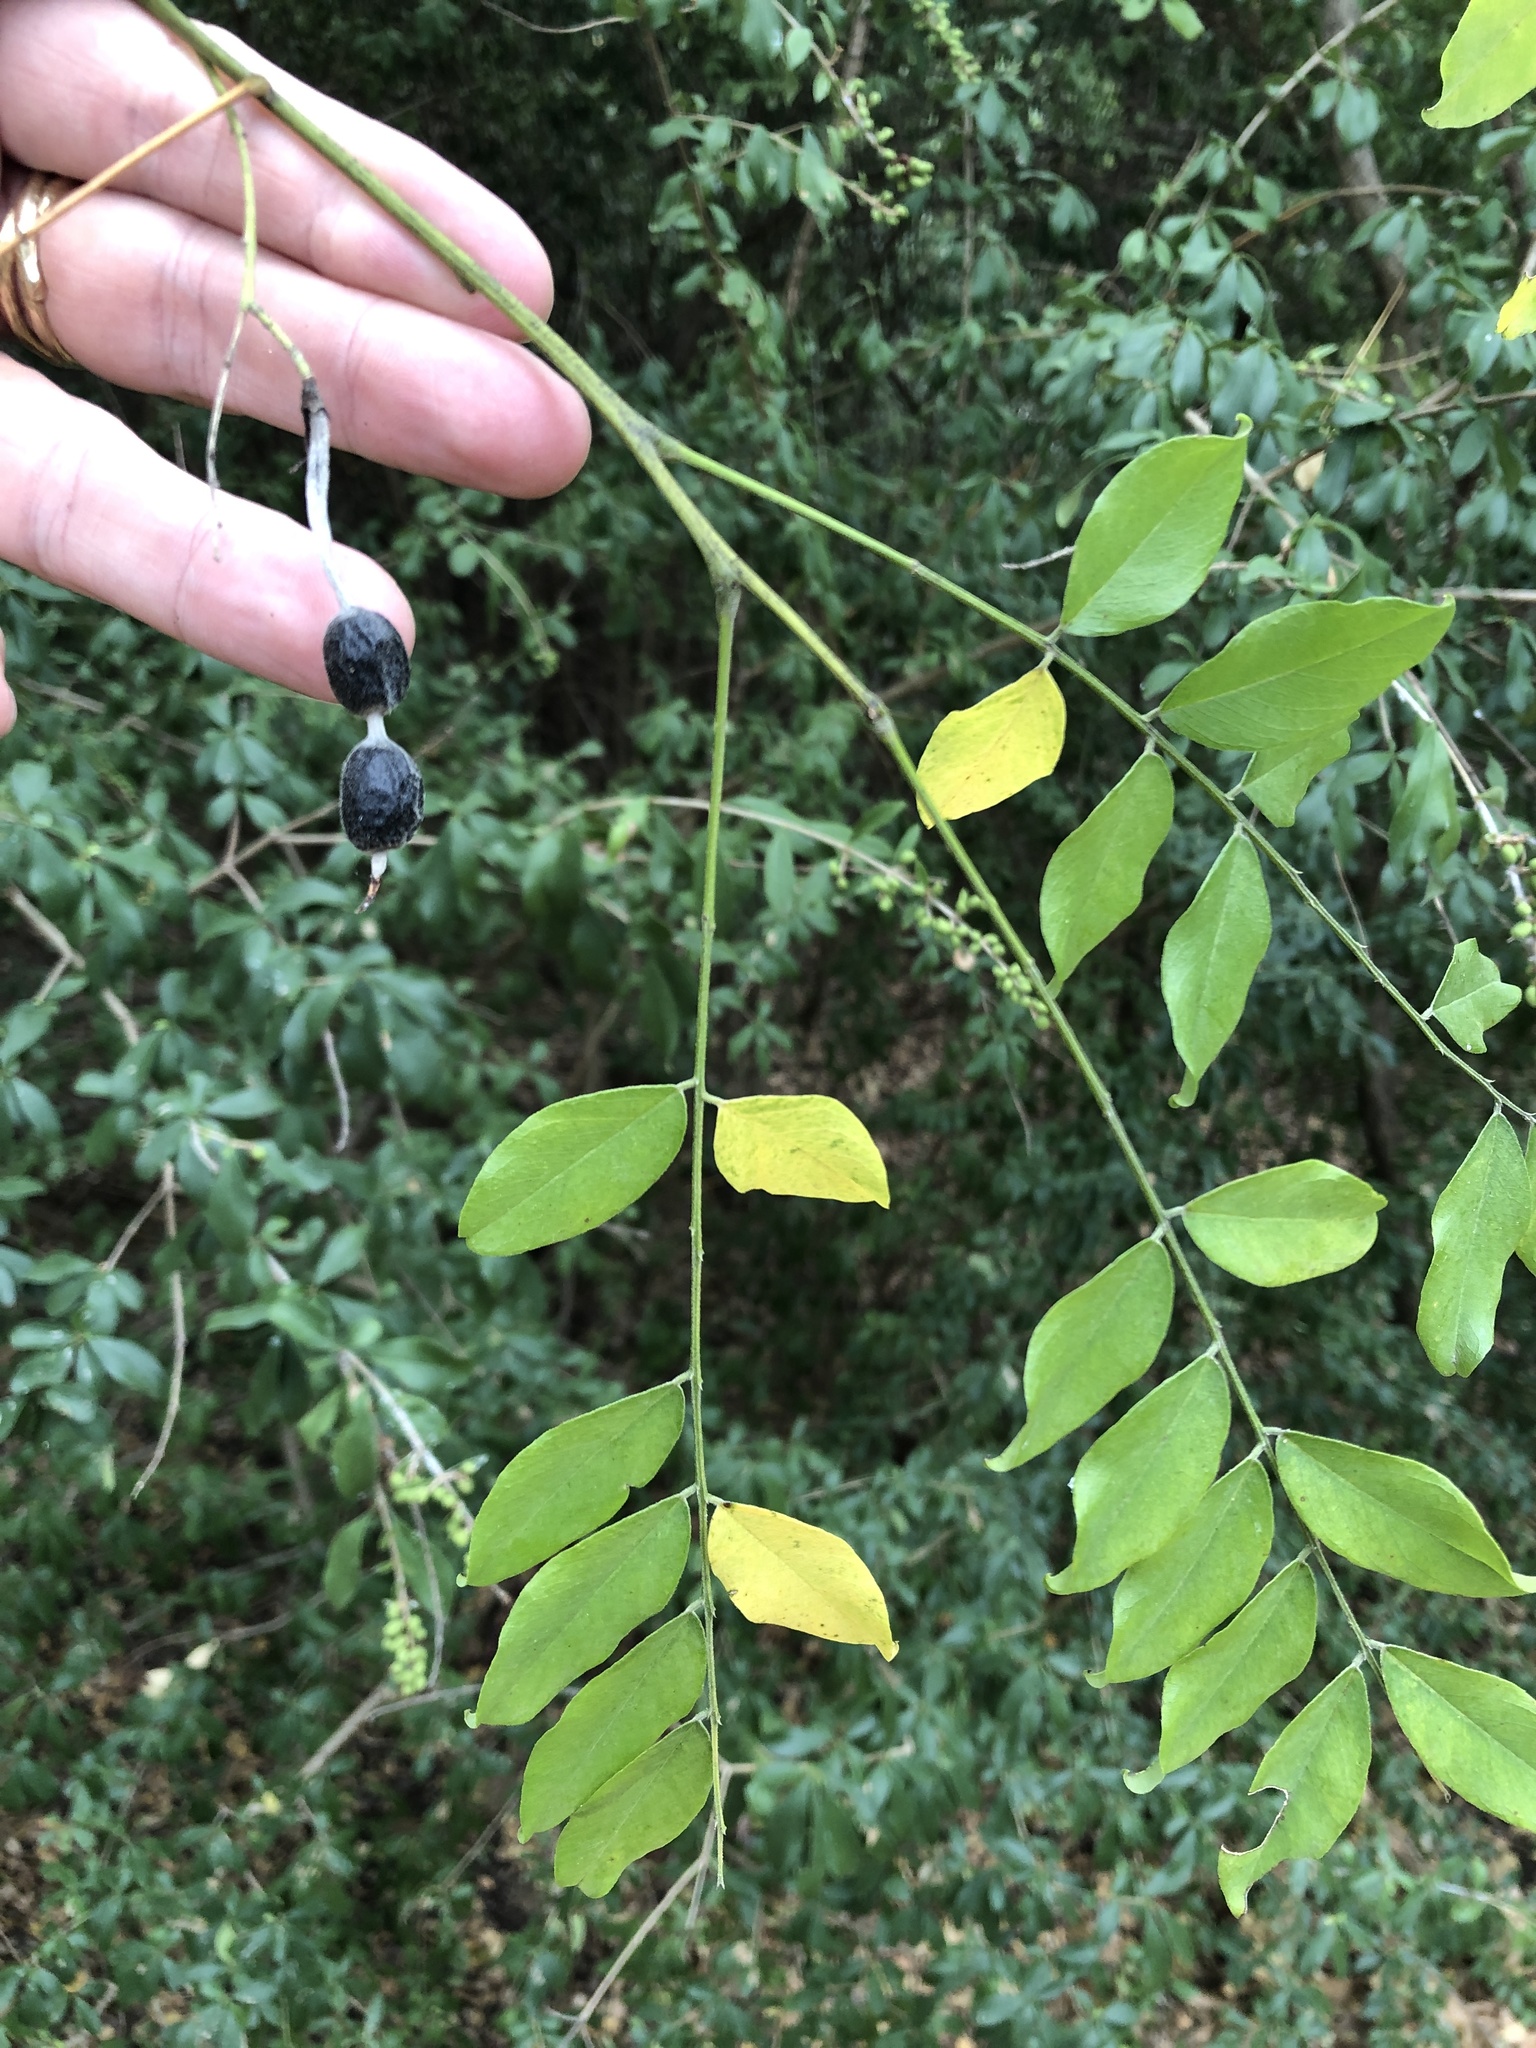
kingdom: Plantae
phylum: Tracheophyta
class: Magnoliopsida
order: Fabales
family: Fabaceae
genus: Styphnolobium
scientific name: Styphnolobium affine
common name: Texas sophora
